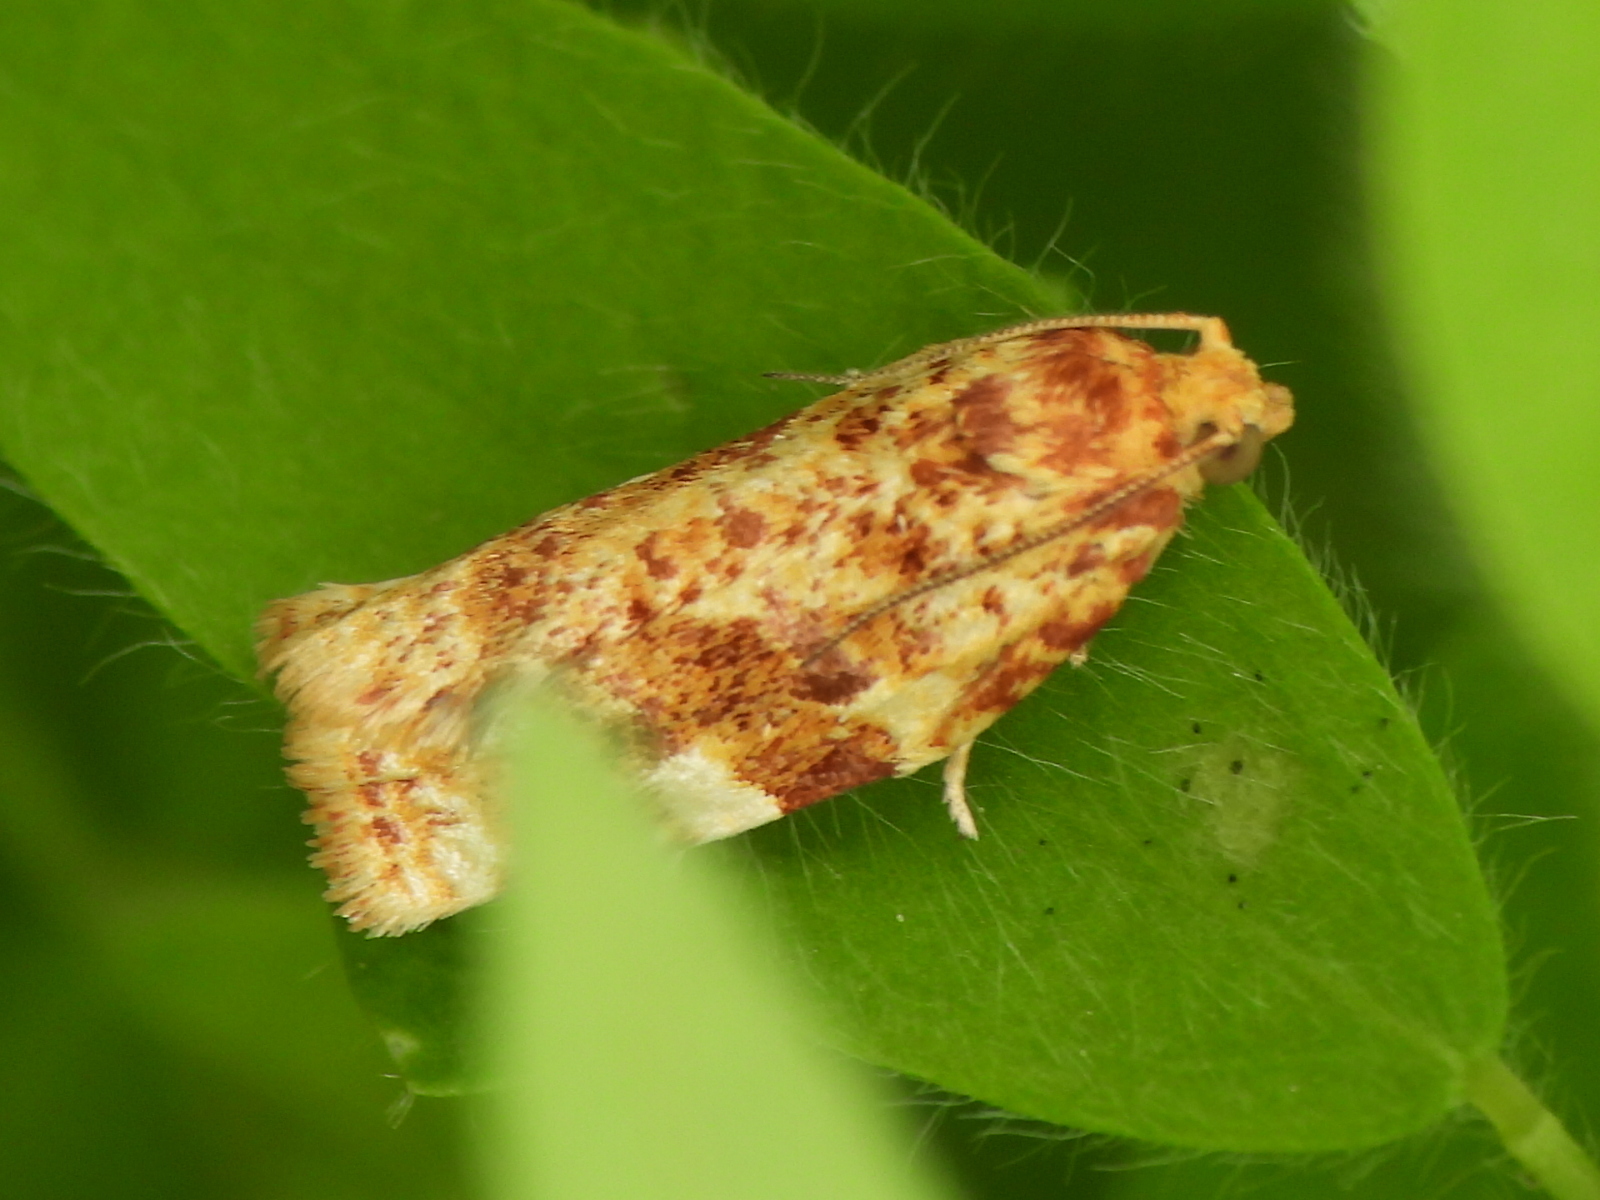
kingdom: Animalia
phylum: Arthropoda
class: Insecta
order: Lepidoptera
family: Tortricidae
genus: Archips
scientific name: Archips argyrospila
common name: Fruit-tree leafroller moth
